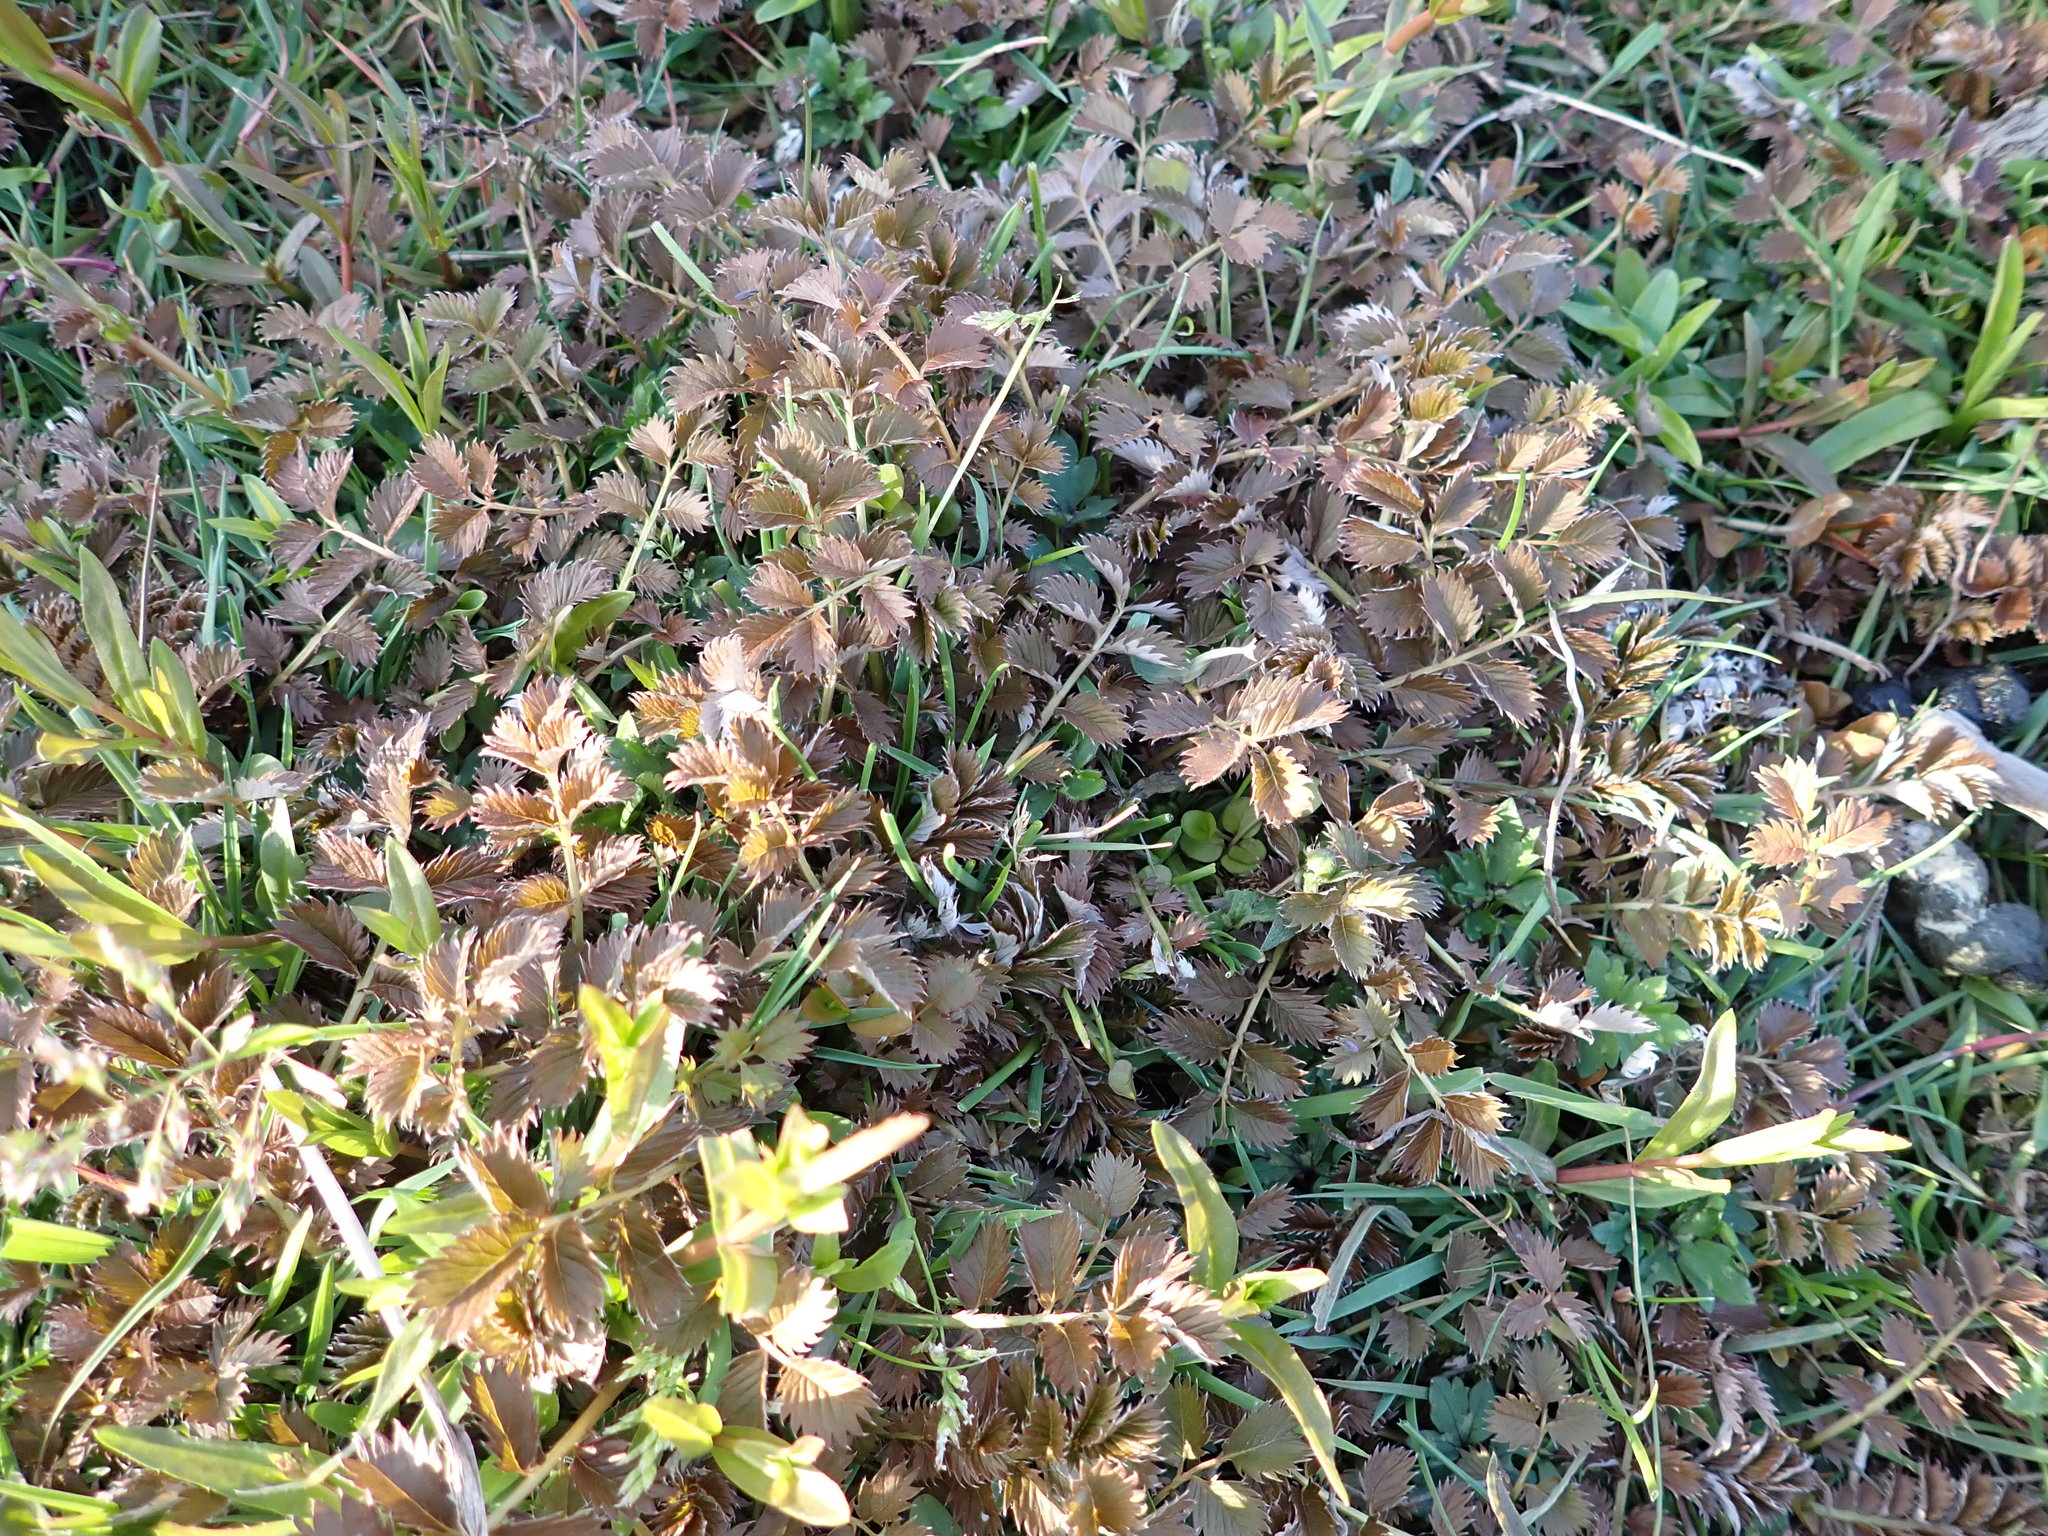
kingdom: Plantae
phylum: Tracheophyta
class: Magnoliopsida
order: Rosales
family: Rosaceae
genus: Argentina
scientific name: Argentina anserina
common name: Common silverweed
